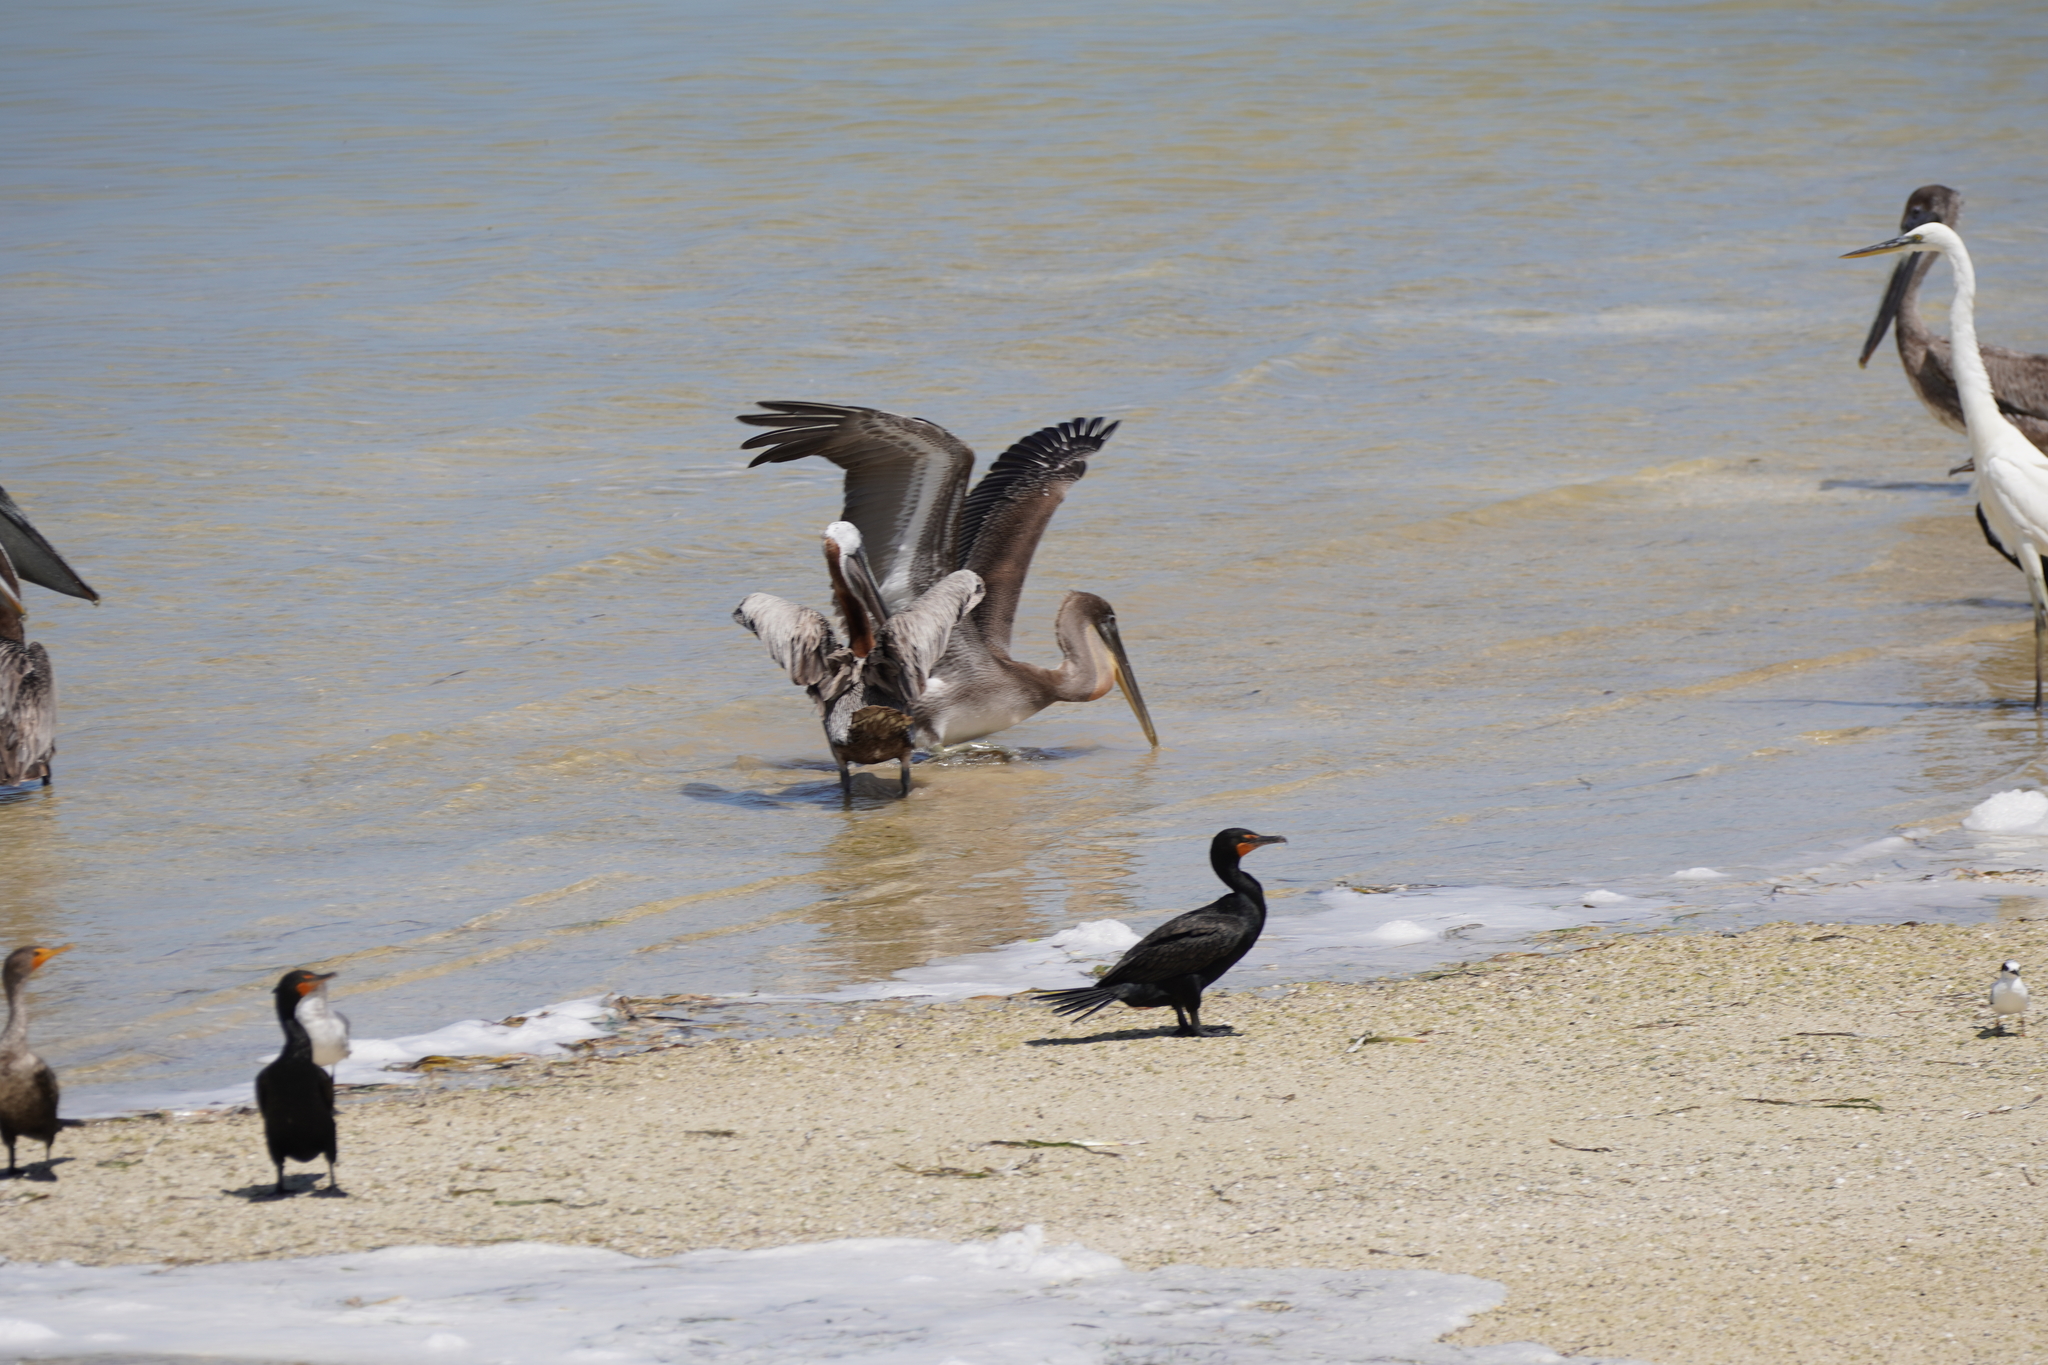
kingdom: Animalia
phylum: Chordata
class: Aves
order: Pelecaniformes
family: Pelecanidae
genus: Pelecanus
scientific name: Pelecanus occidentalis
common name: Brown pelican
